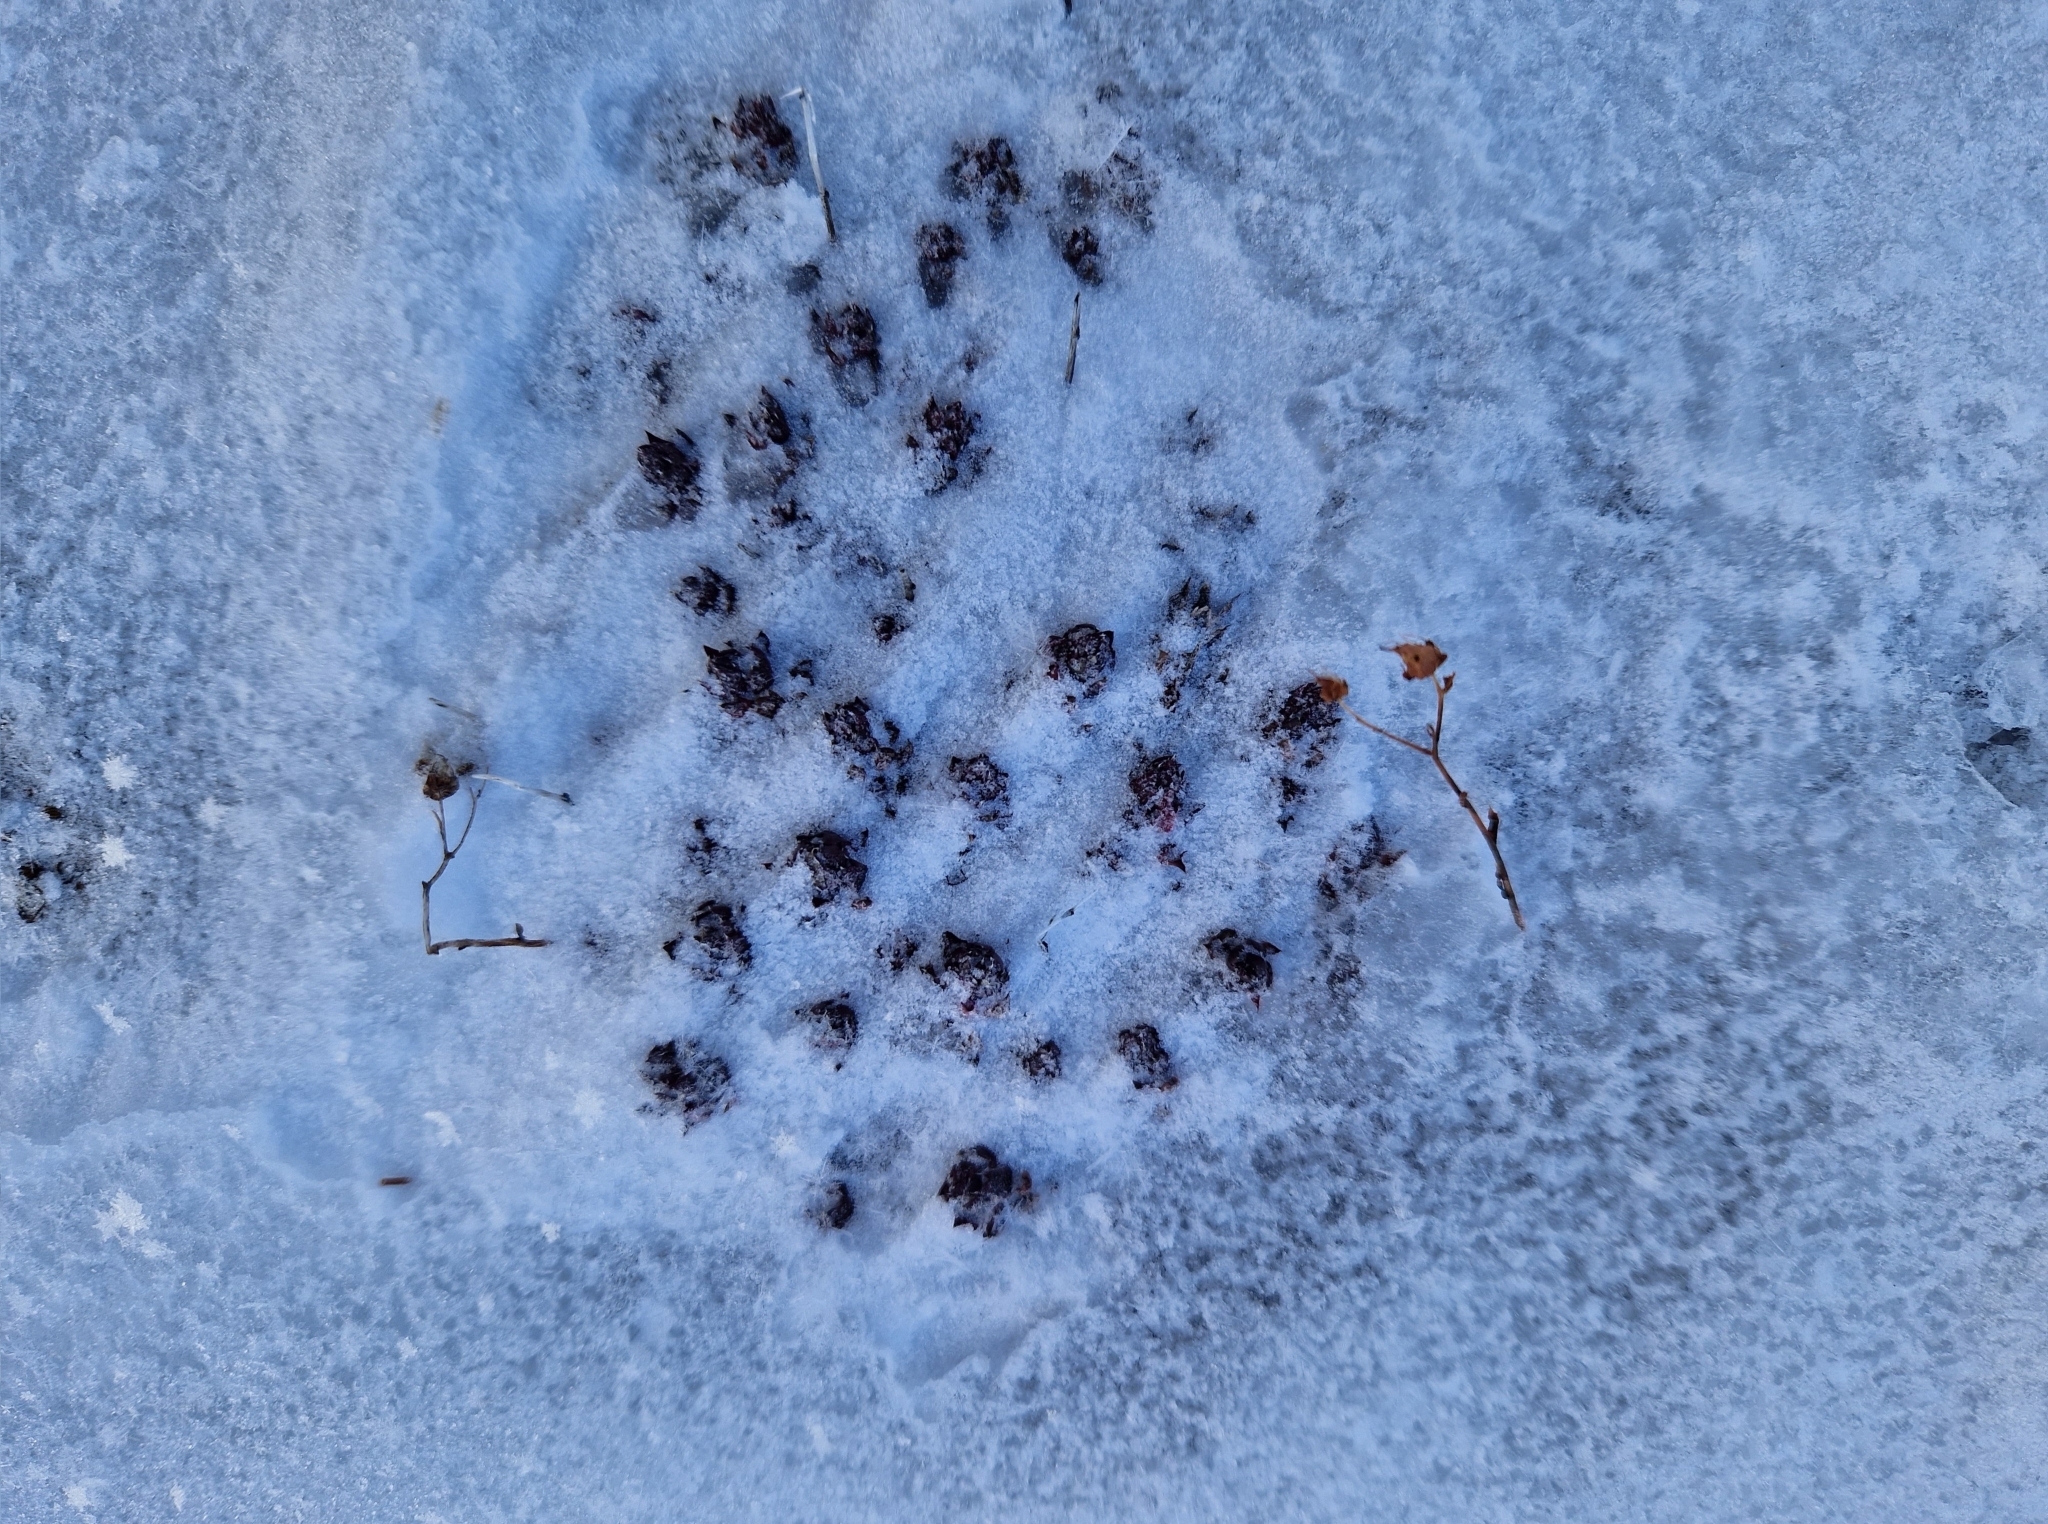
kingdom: Plantae
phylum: Tracheophyta
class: Magnoliopsida
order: Saxifragales
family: Saxifragaceae
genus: Saxifraga
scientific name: Saxifraga tricuspidata
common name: Prickly saxifrage
